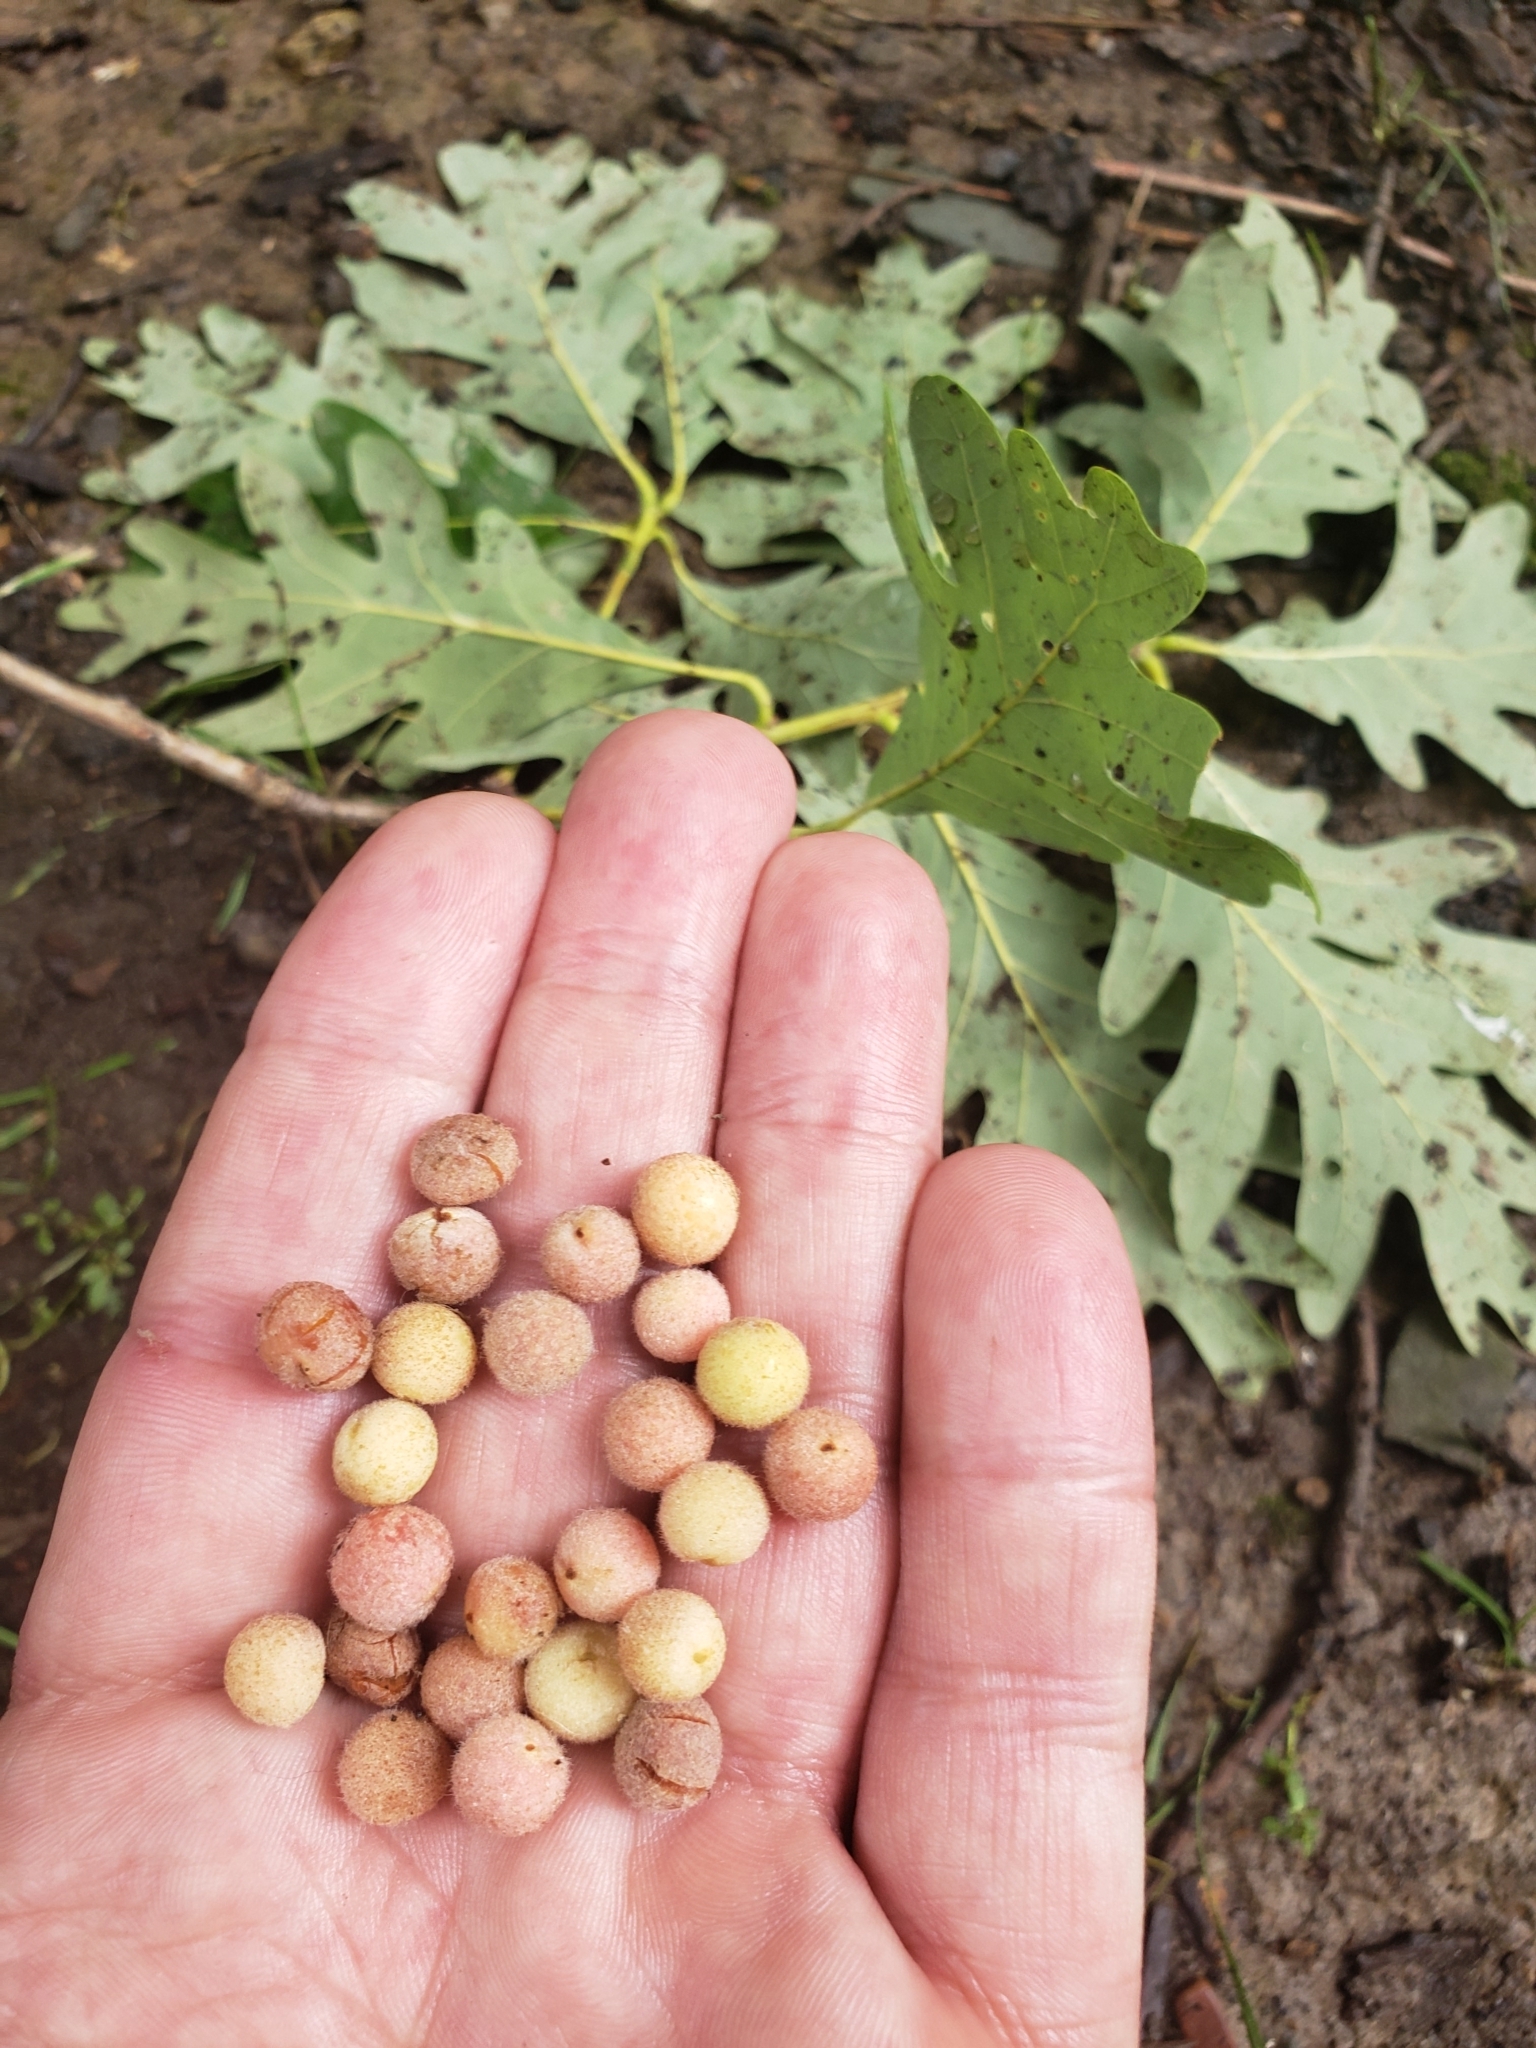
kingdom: Animalia
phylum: Arthropoda
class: Insecta
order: Hymenoptera
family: Cynipidae
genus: Philonix
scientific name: Philonix fulvicollis
